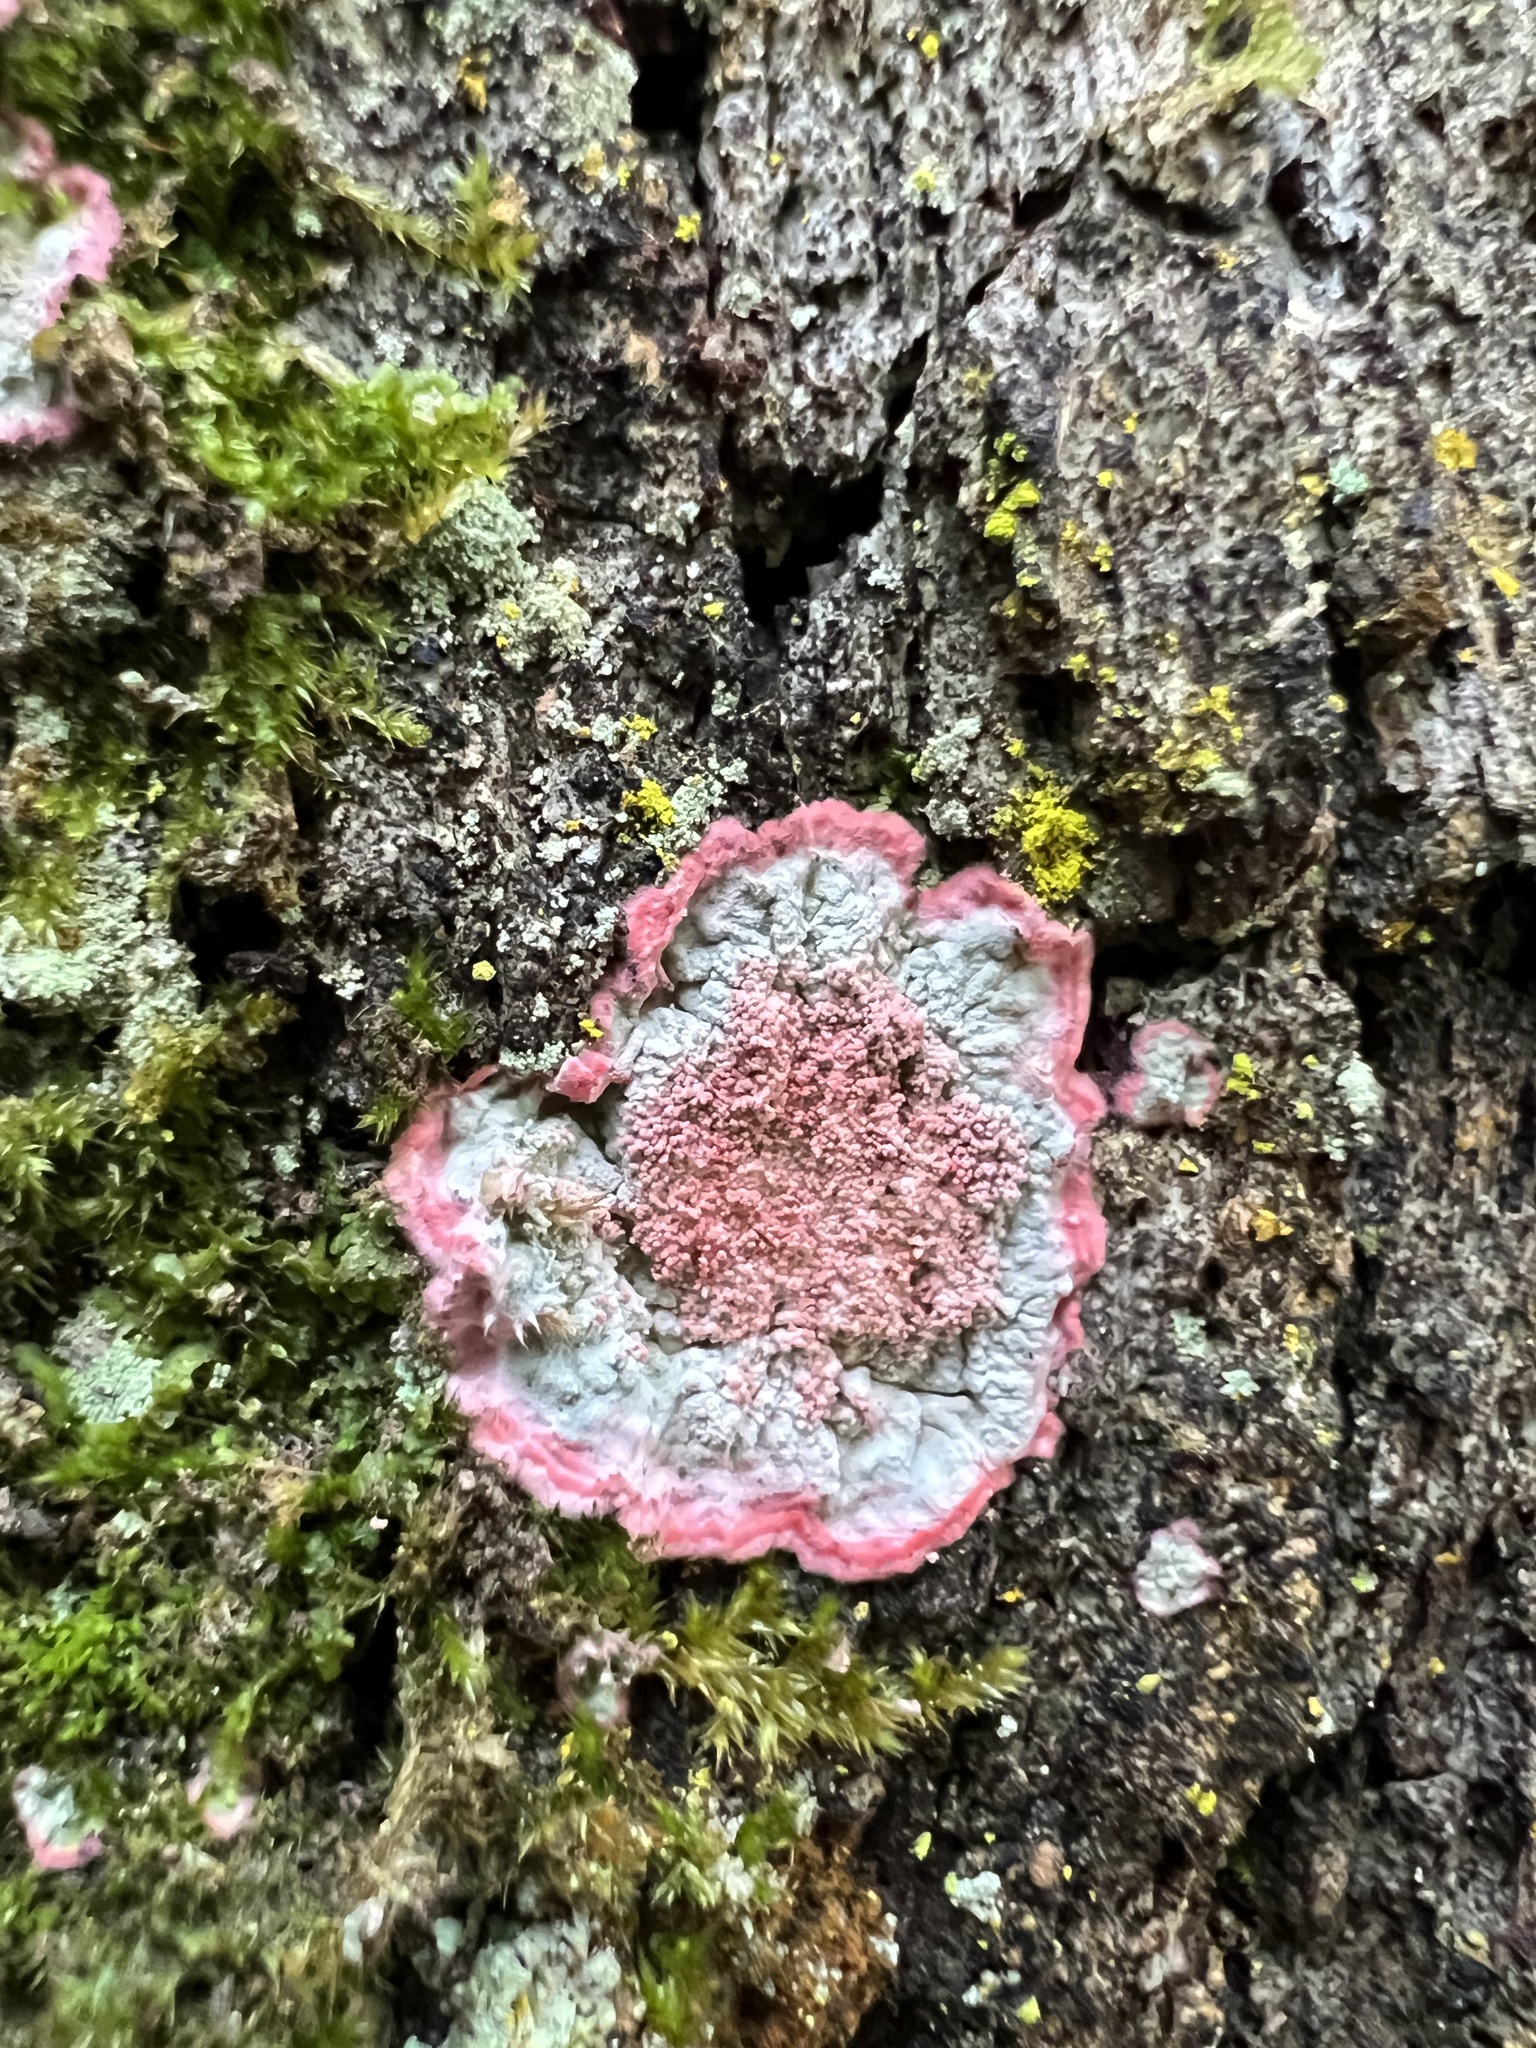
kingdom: Fungi
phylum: Ascomycota
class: Arthoniomycetes
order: Arthoniales
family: Arthoniaceae
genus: Herpothallon
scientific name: Herpothallon rubrocinctum
